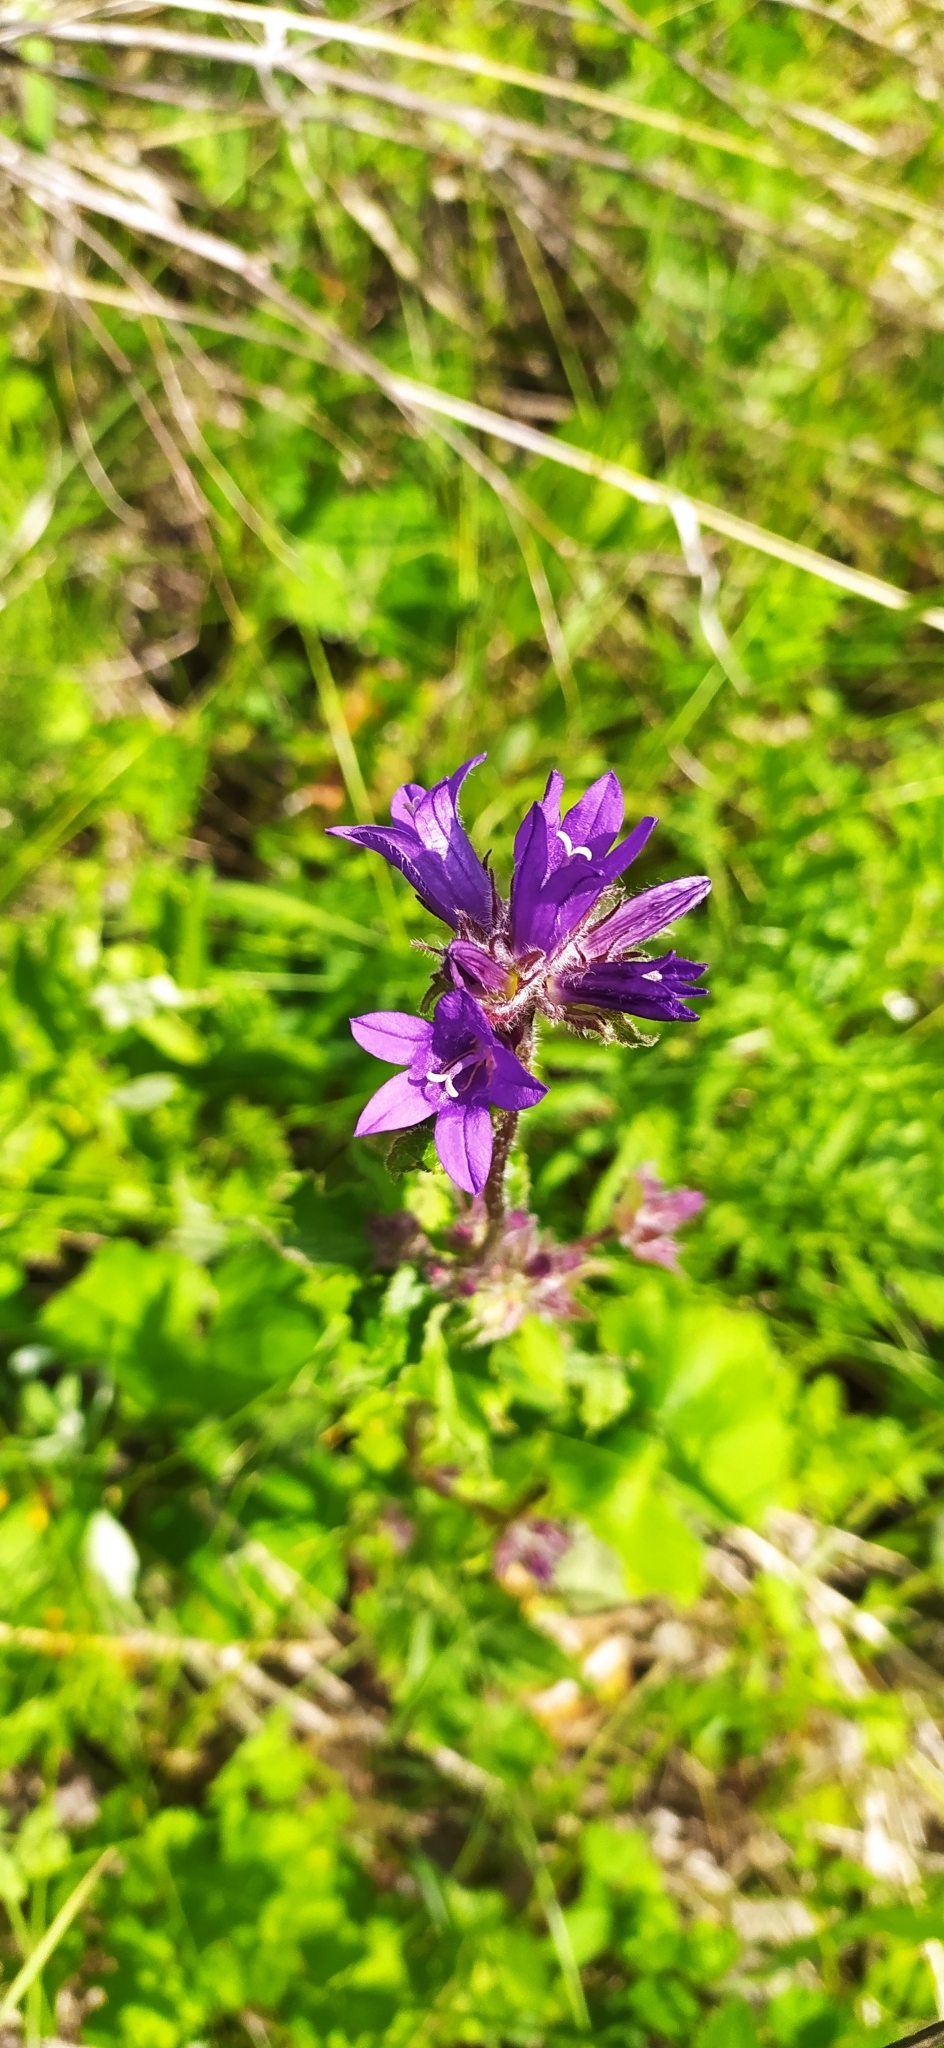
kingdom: Plantae
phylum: Tracheophyta
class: Magnoliopsida
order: Asterales
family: Campanulaceae
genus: Campanula
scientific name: Campanula glomerata
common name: Clustered bellflower
